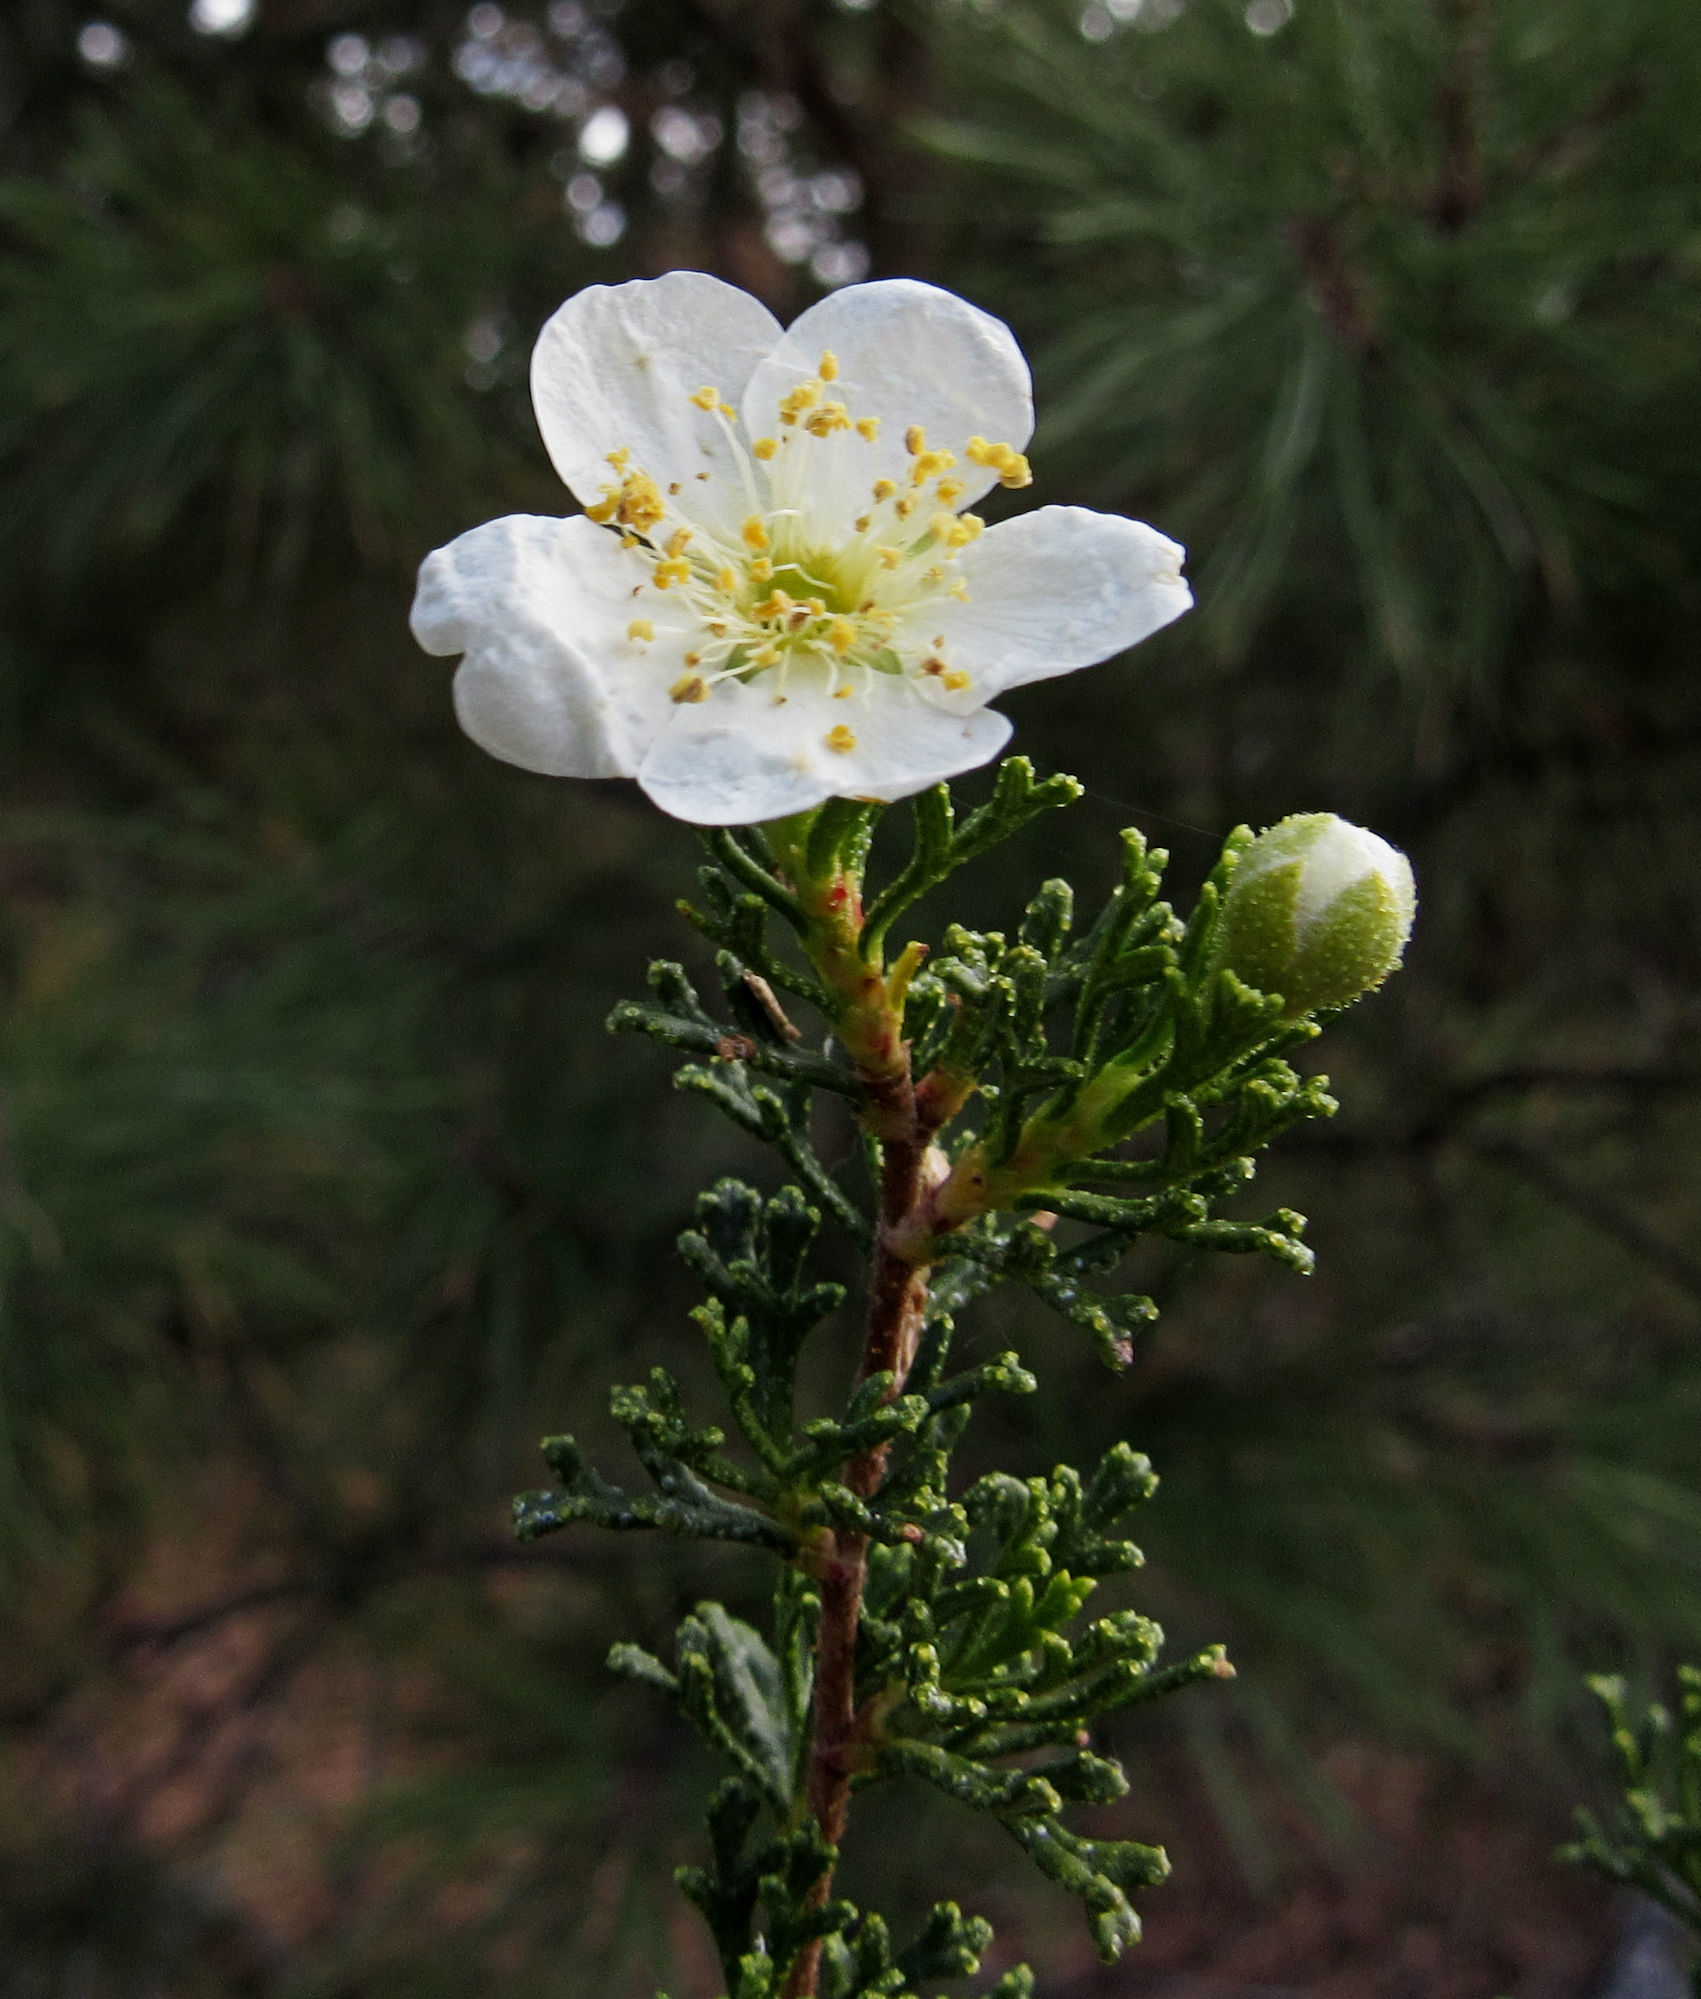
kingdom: Plantae
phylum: Tracheophyta
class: Magnoliopsida
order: Rosales
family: Rosaceae
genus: Purshia
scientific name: Purshia stansburiana
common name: Stansbury's cliffrose
